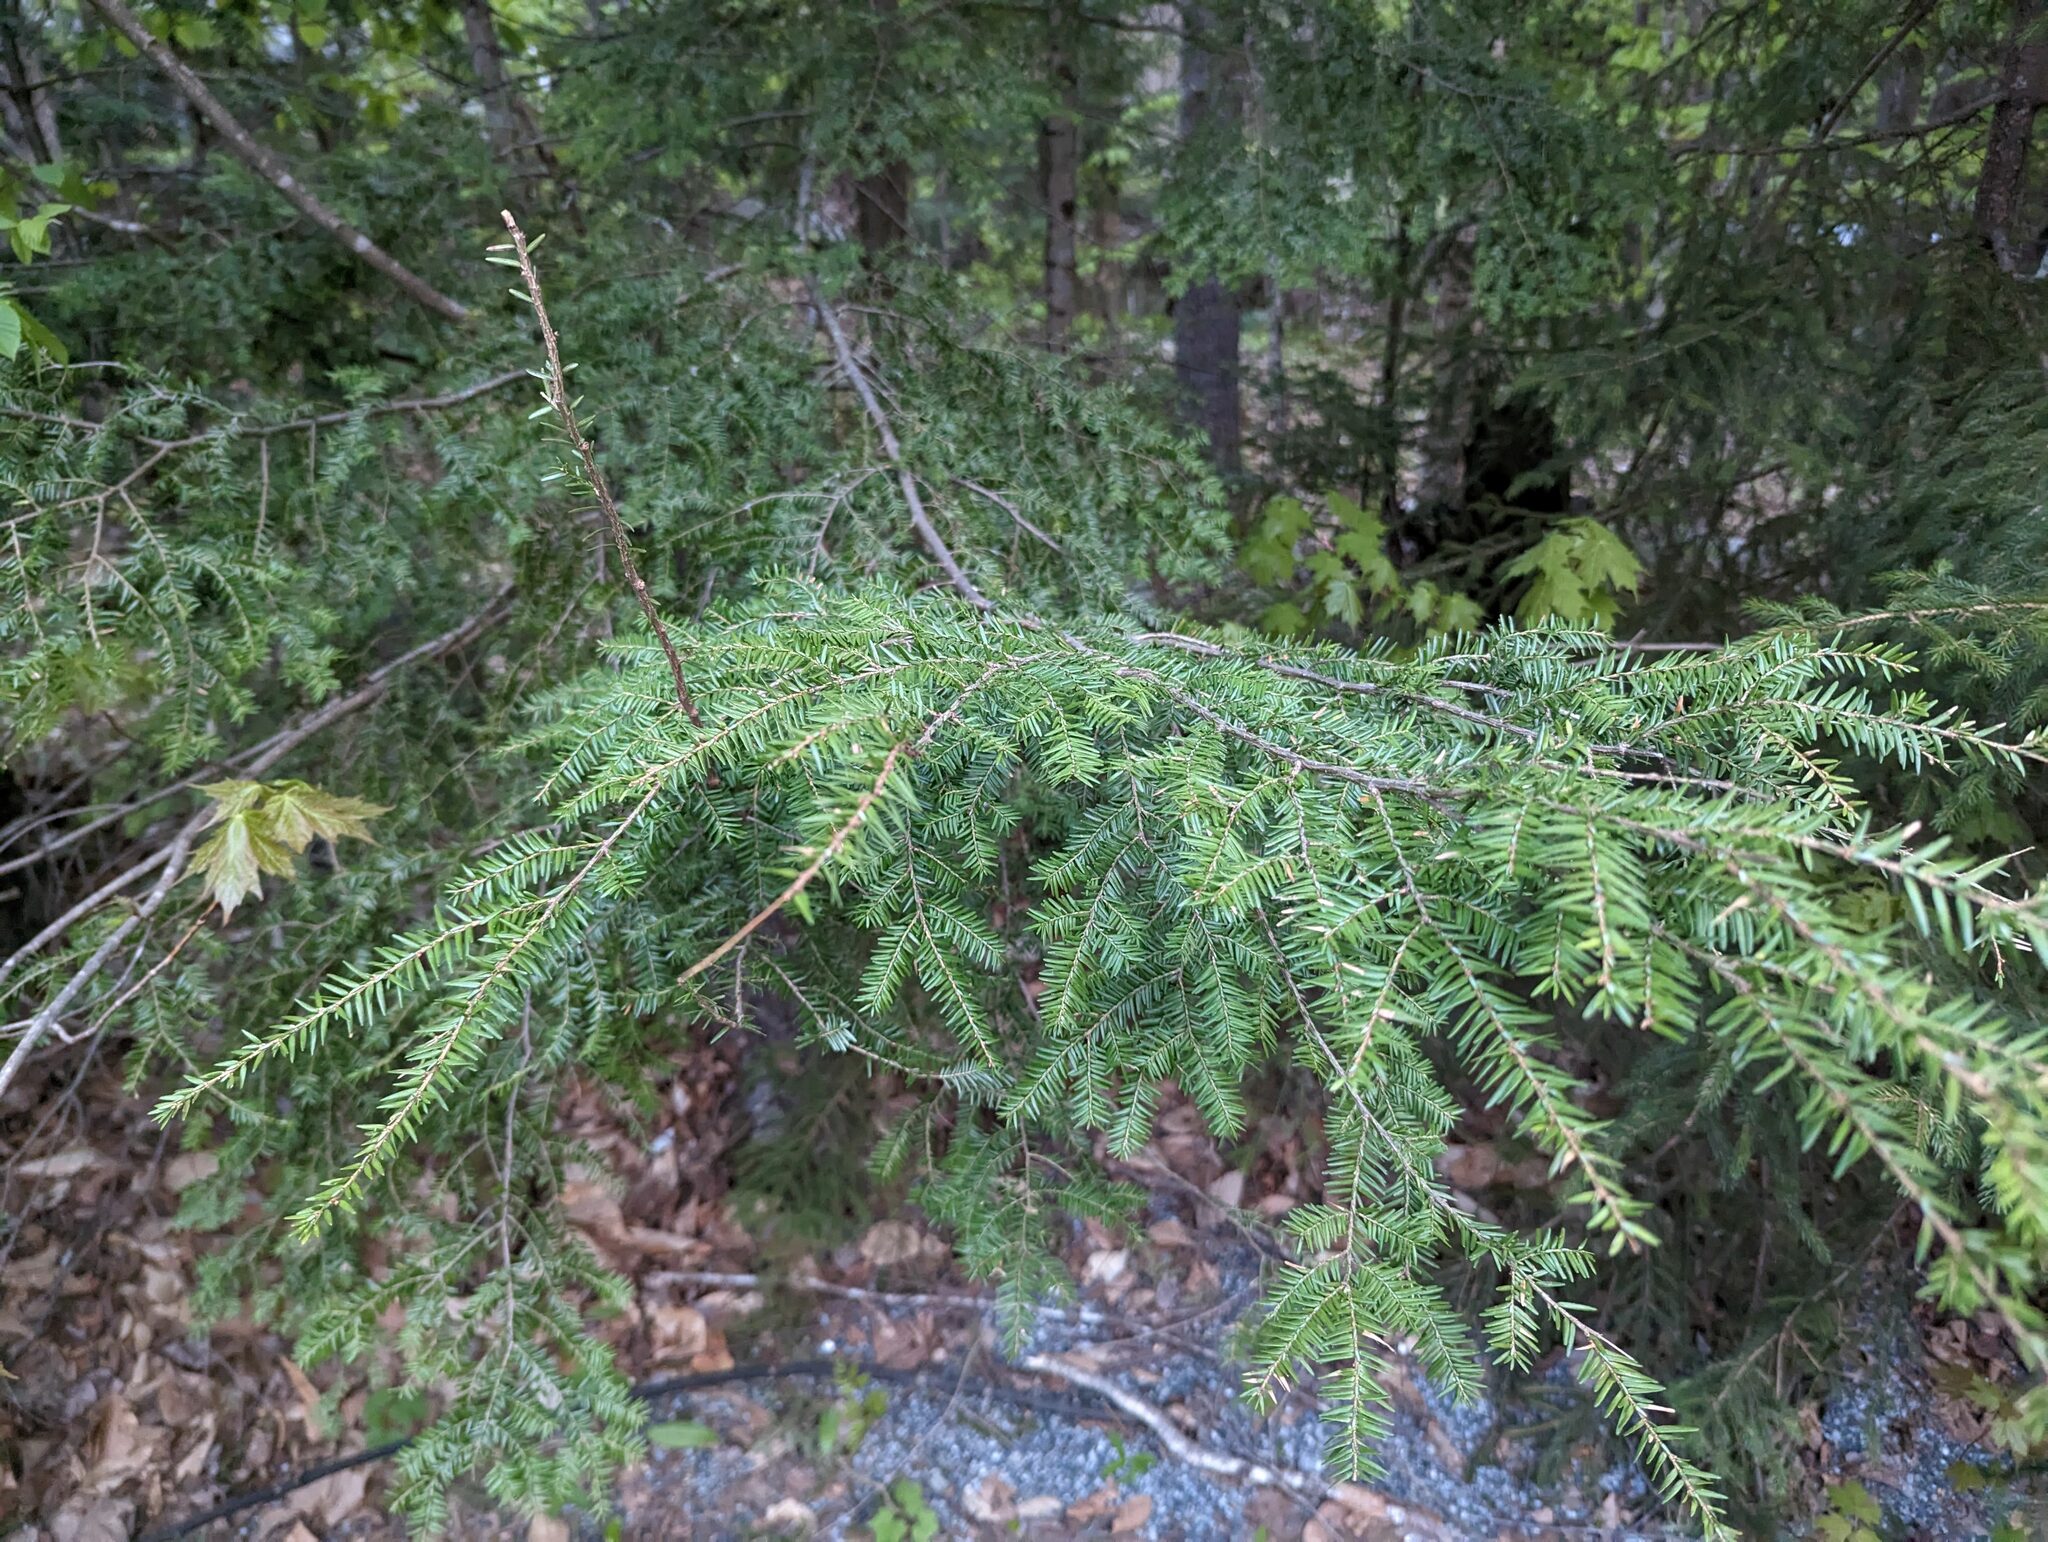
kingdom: Plantae
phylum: Tracheophyta
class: Pinopsida
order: Pinales
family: Pinaceae
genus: Tsuga
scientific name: Tsuga canadensis
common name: Eastern hemlock
